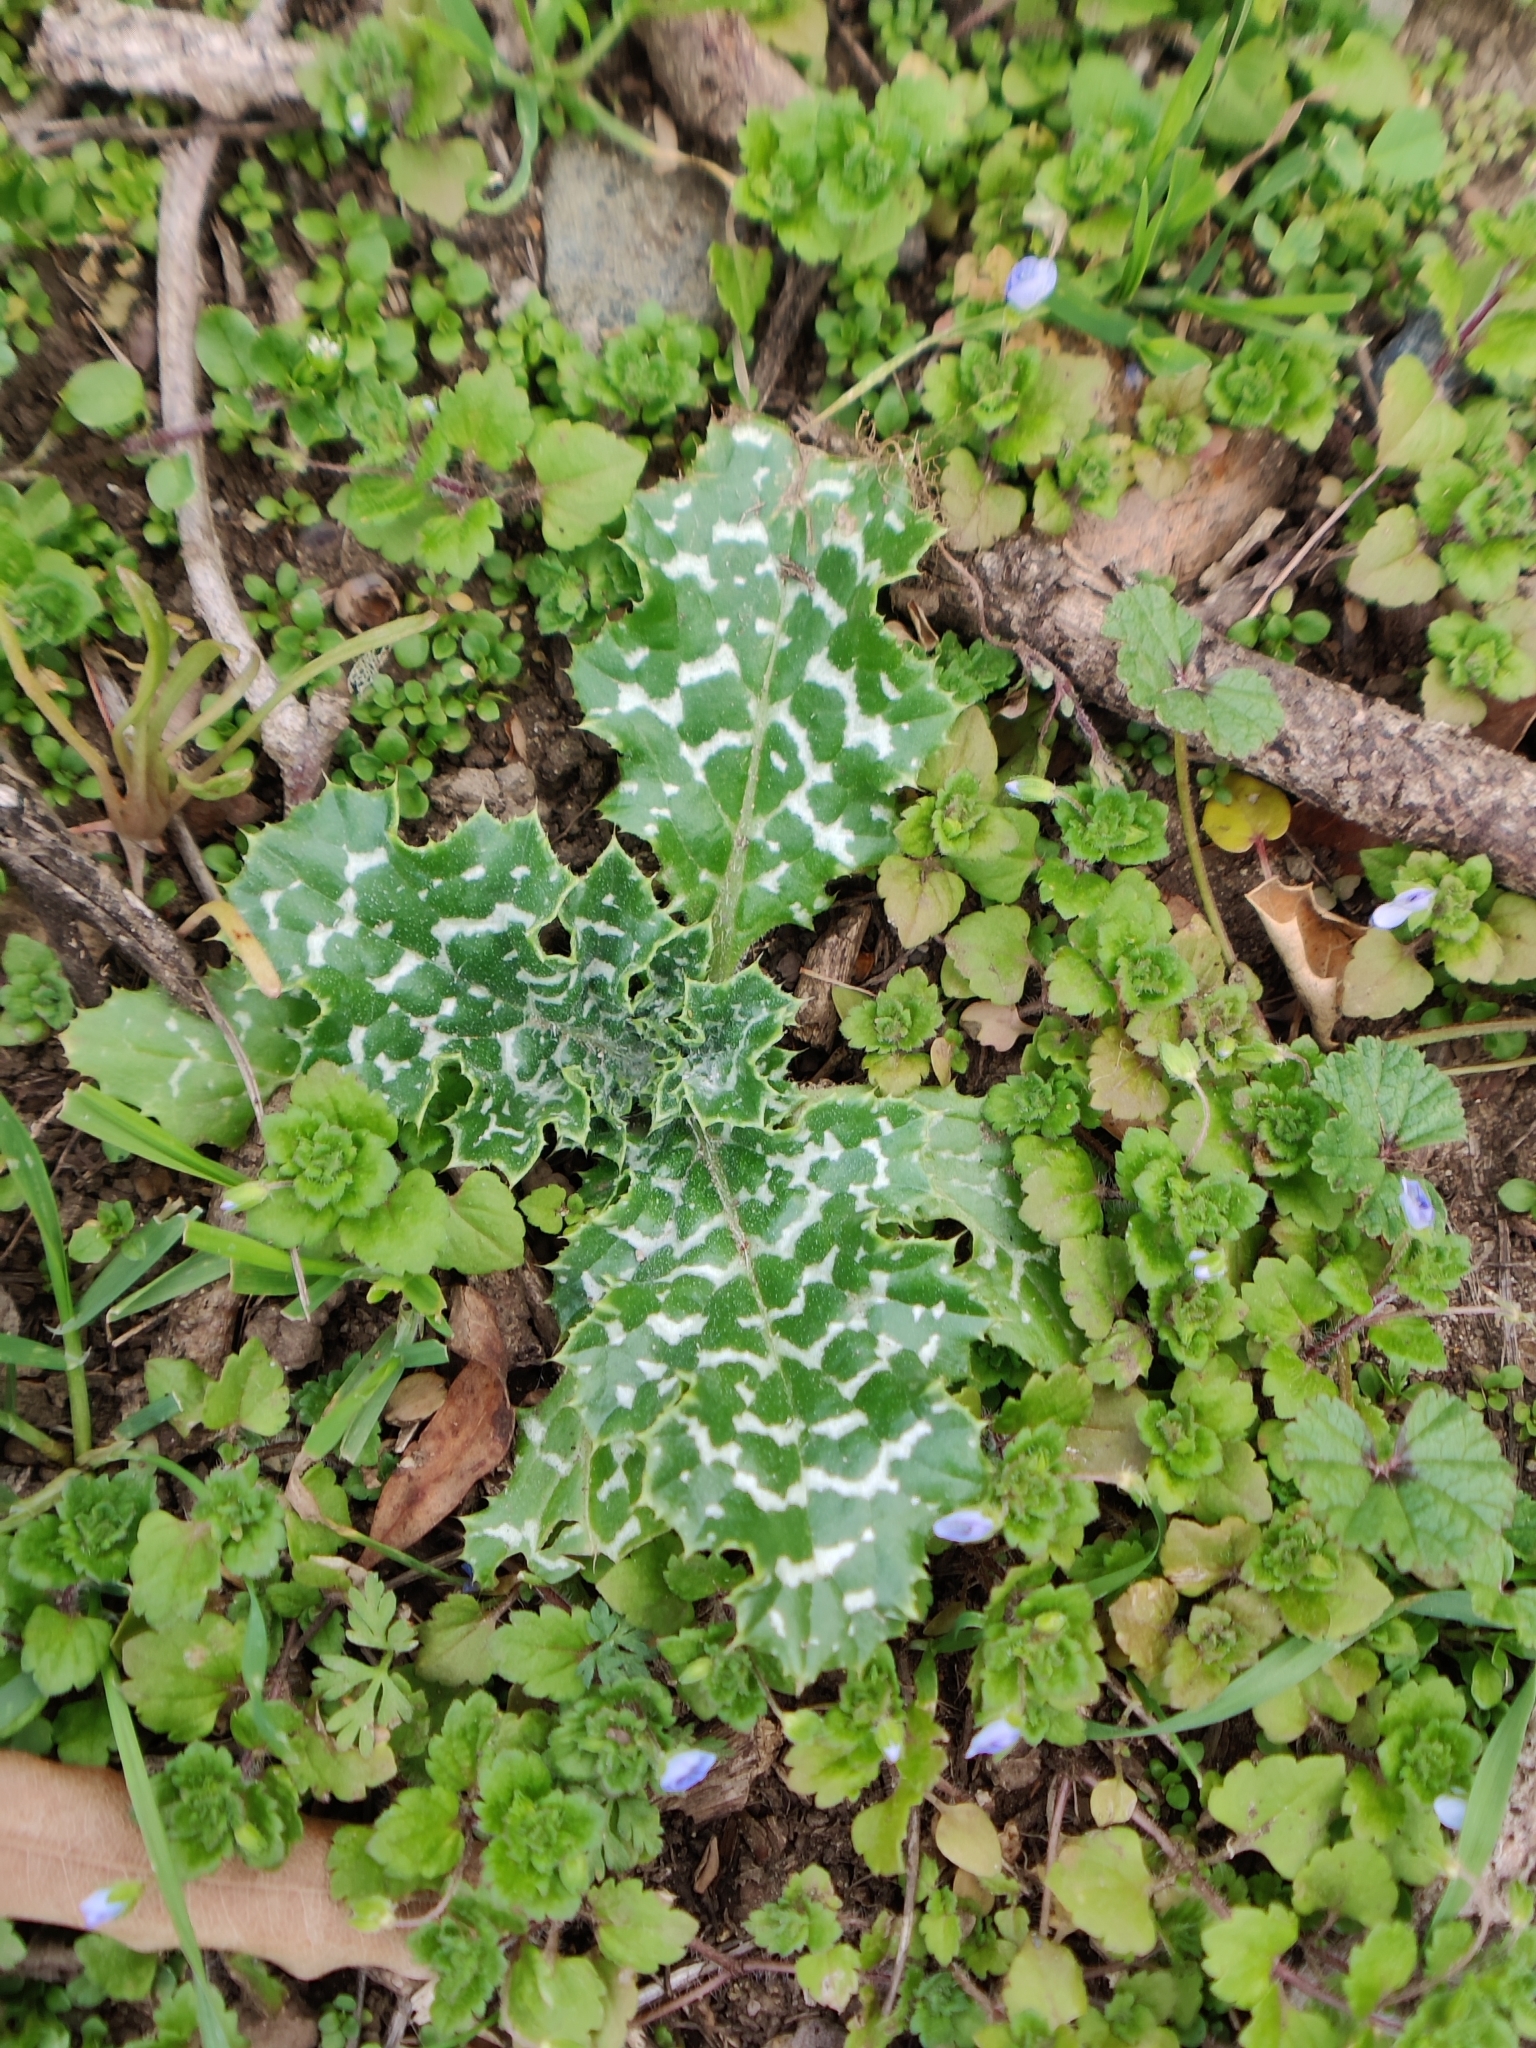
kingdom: Plantae
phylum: Tracheophyta
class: Magnoliopsida
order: Asterales
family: Asteraceae
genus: Silybum
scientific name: Silybum marianum
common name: Milk thistle
